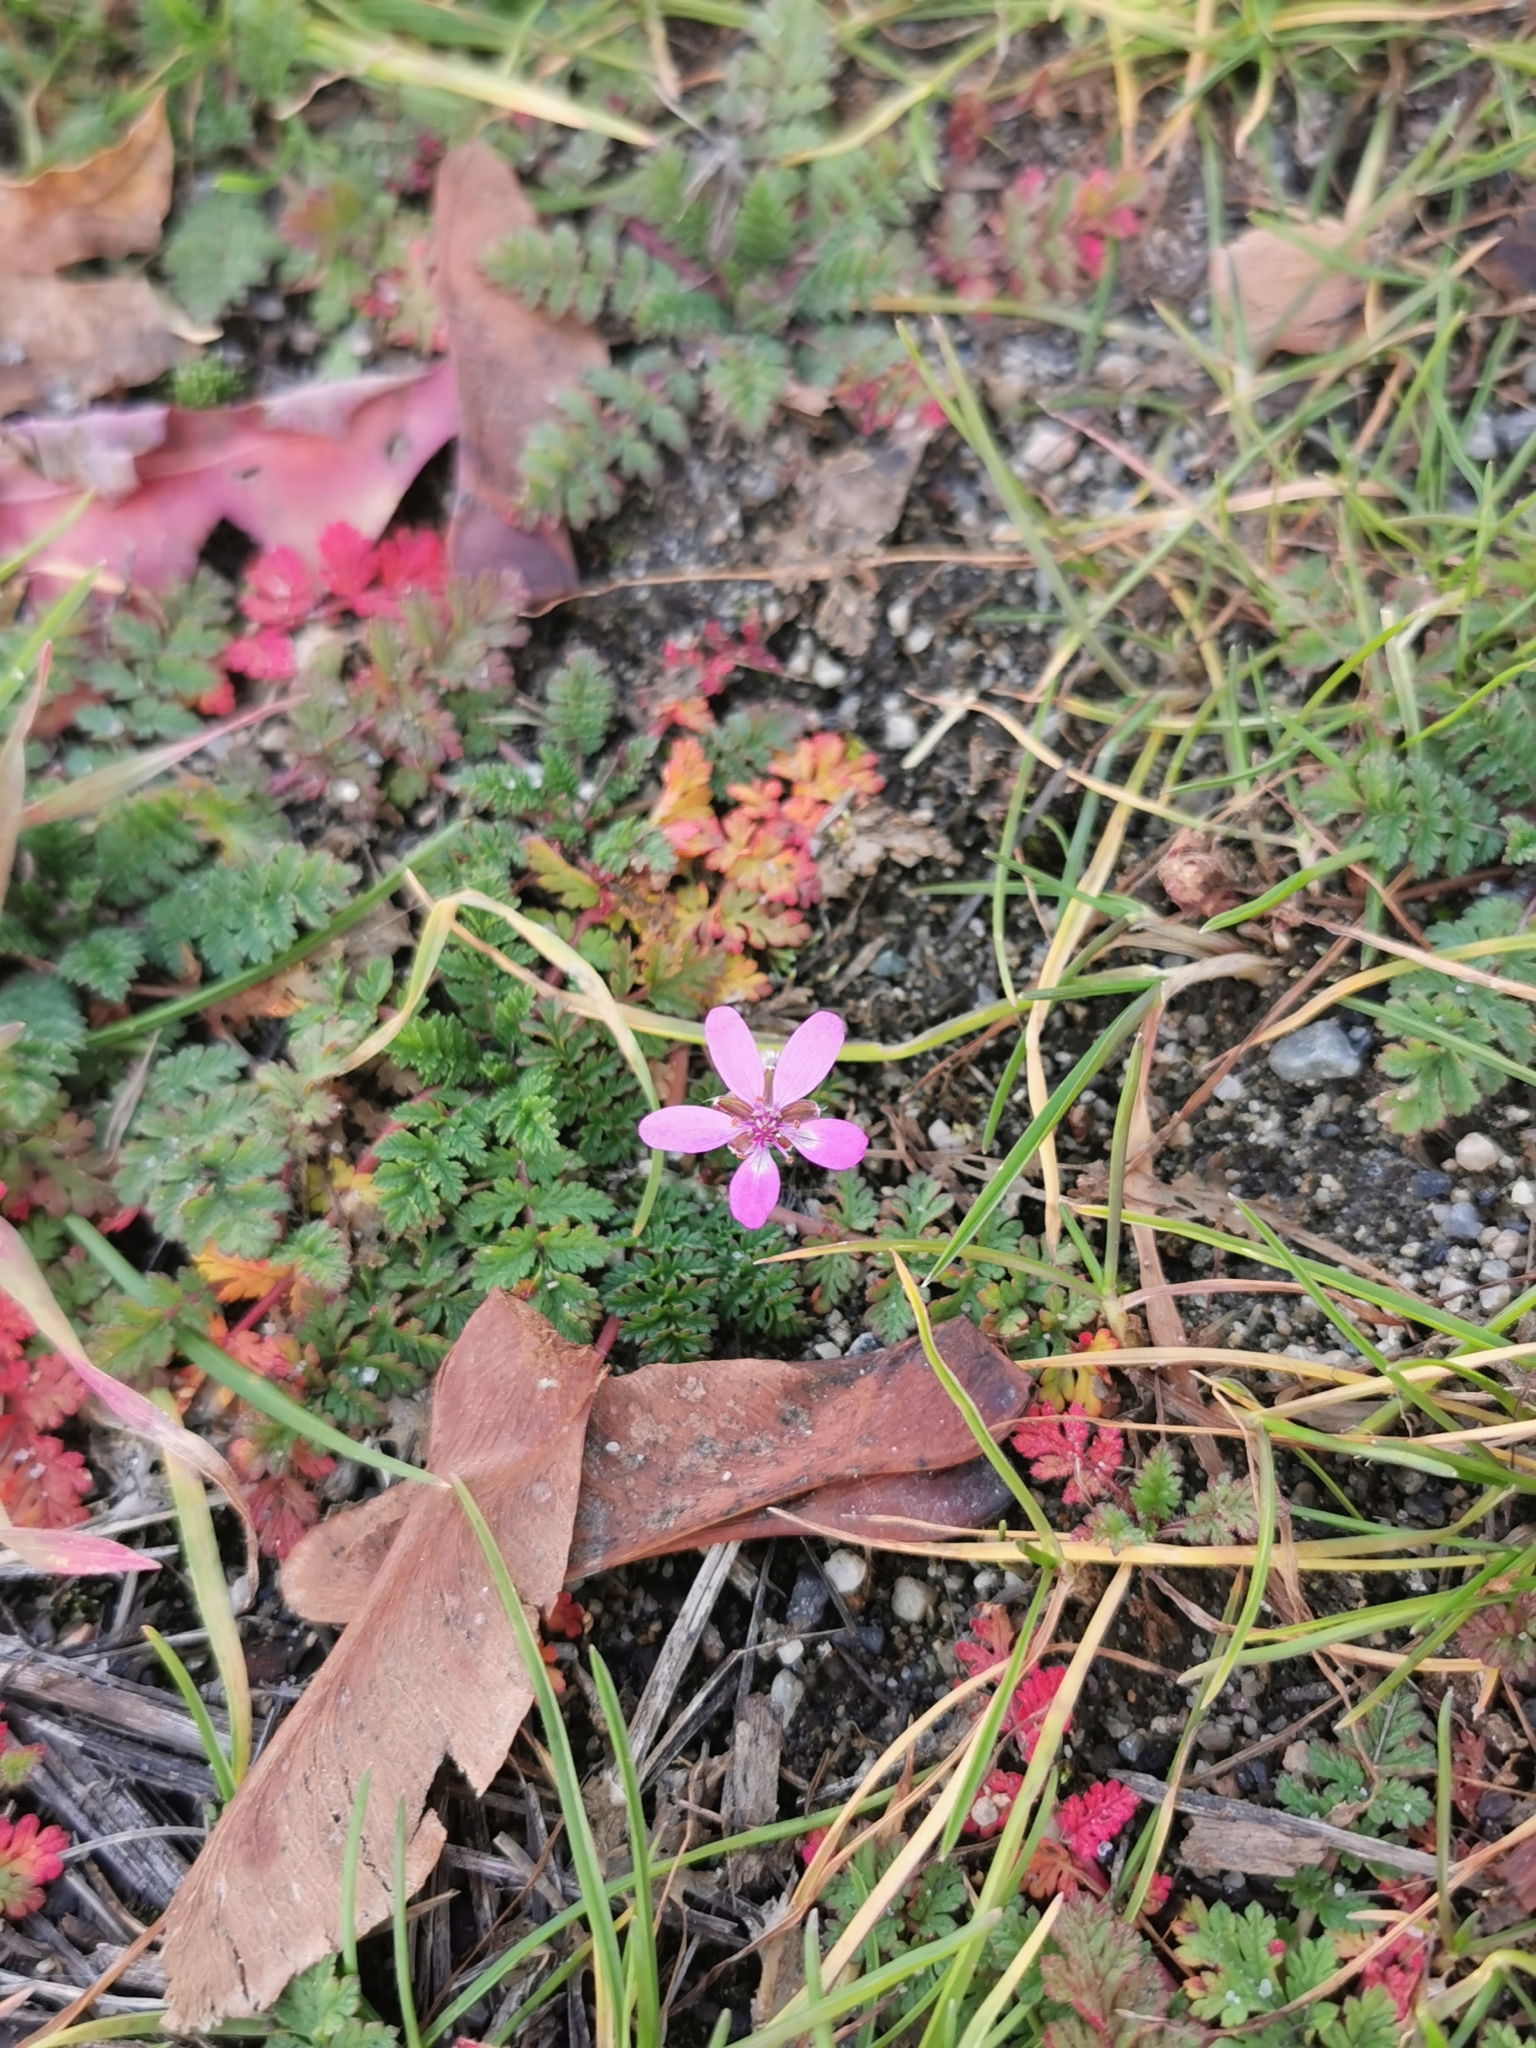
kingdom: Plantae
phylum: Tracheophyta
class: Magnoliopsida
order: Geraniales
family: Geraniaceae
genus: Erodium
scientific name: Erodium cicutarium
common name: Common stork's-bill
